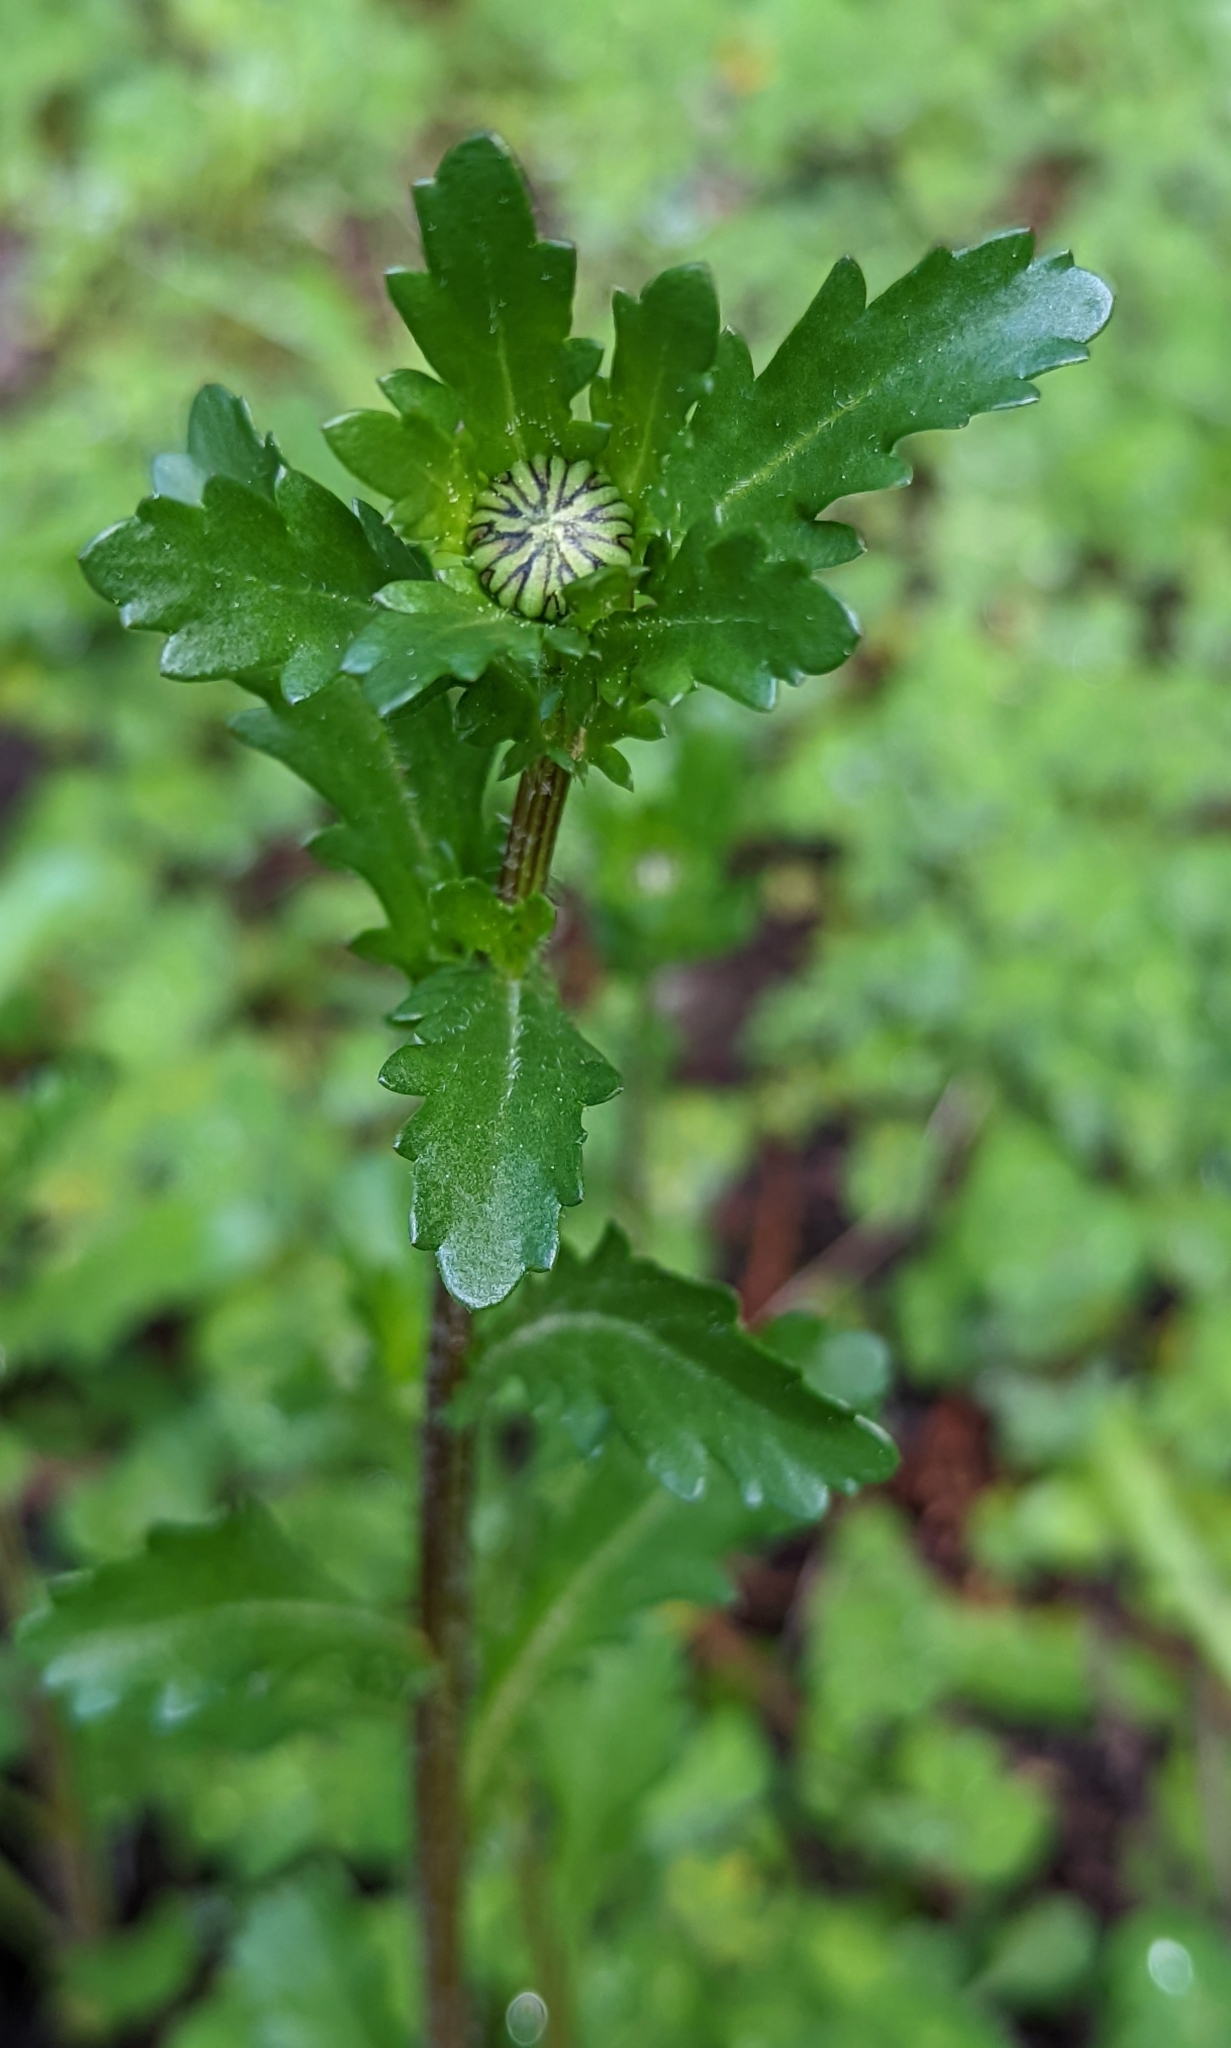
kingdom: Plantae
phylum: Tracheophyta
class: Magnoliopsida
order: Asterales
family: Asteraceae
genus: Leucanthemum
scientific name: Leucanthemum vulgare
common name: Oxeye daisy
